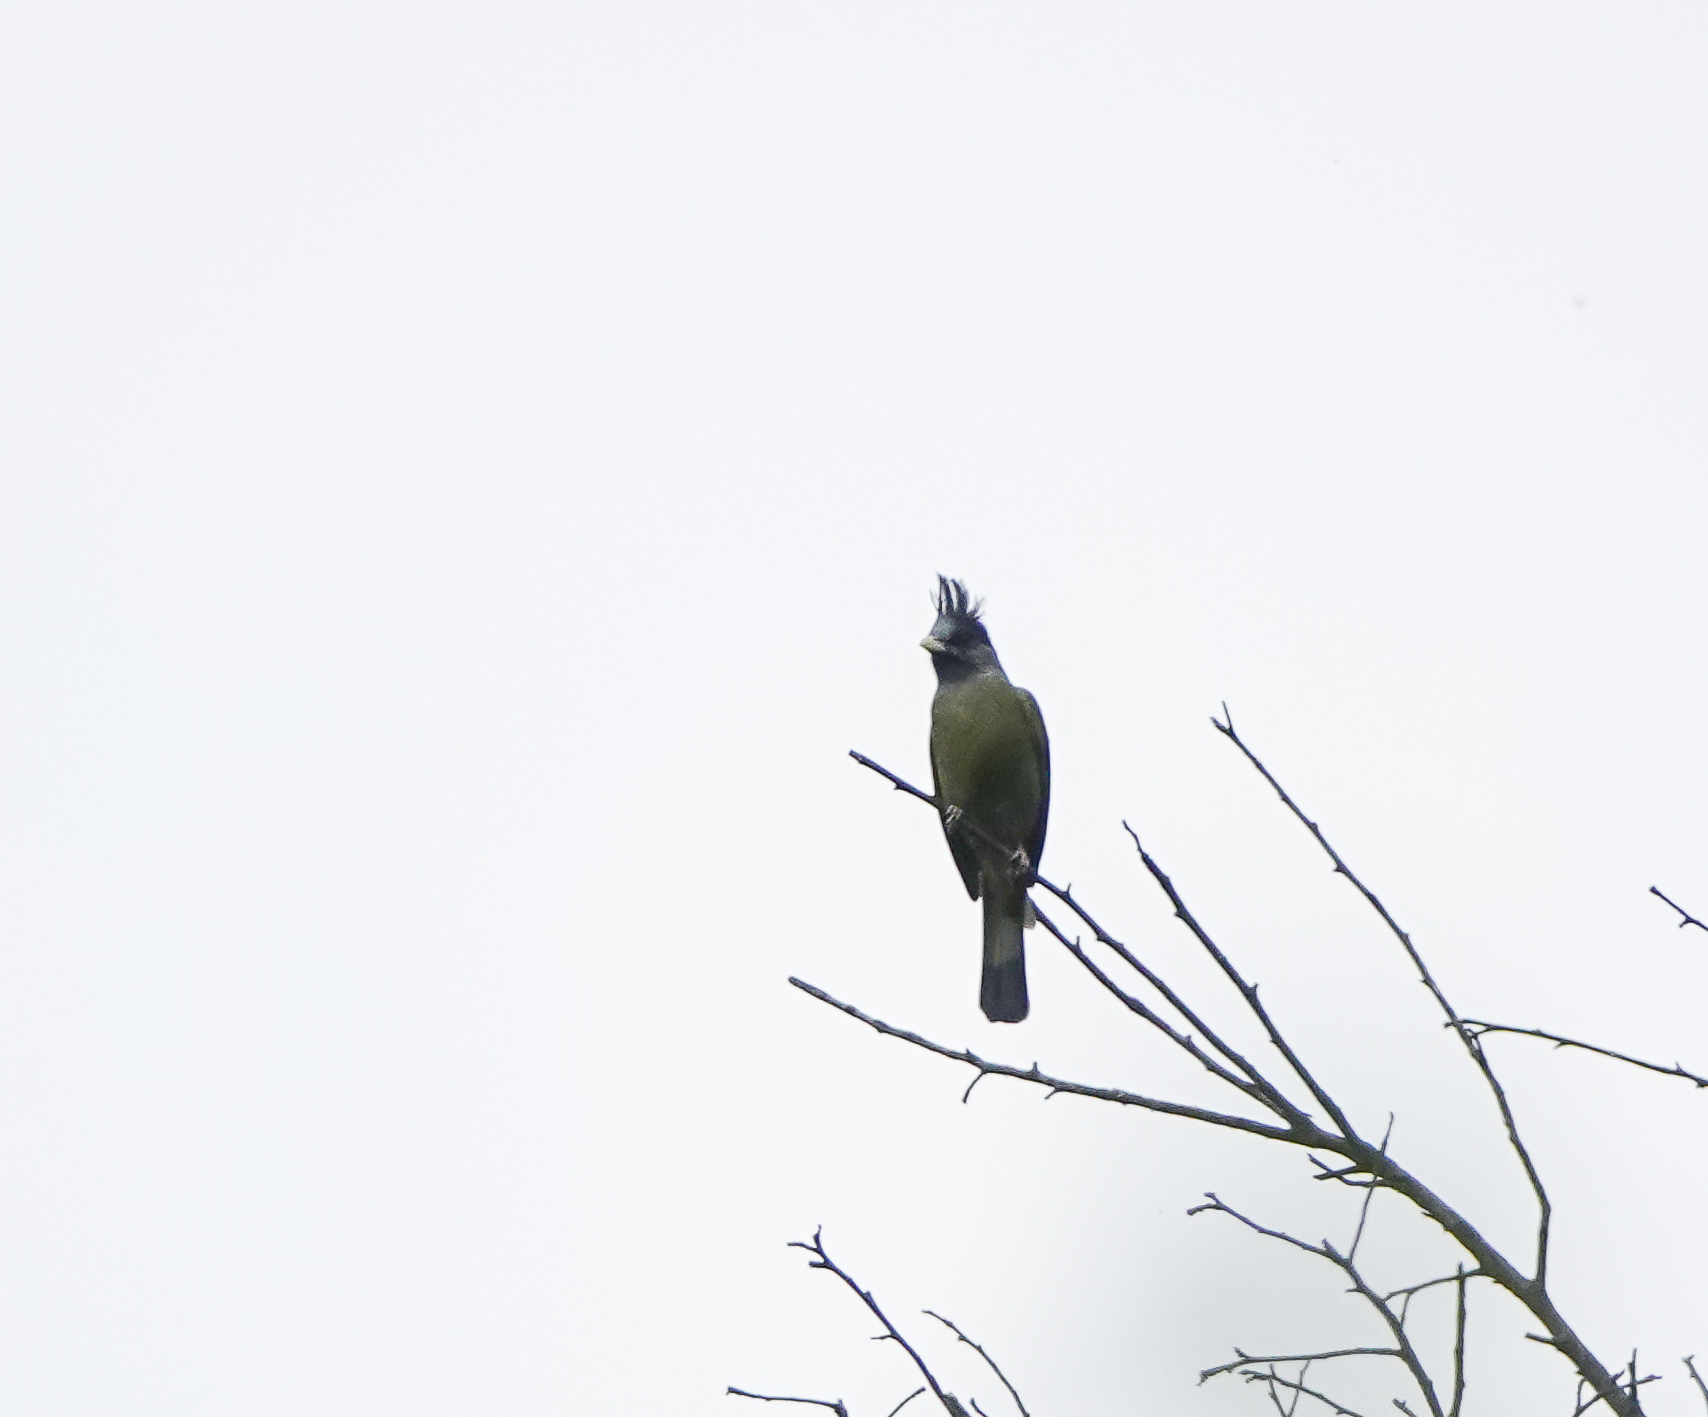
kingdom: Animalia
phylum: Chordata
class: Aves
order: Passeriformes
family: Pycnonotidae
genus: Spizixos
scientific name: Spizixos canifrons
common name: Crested finchbill
